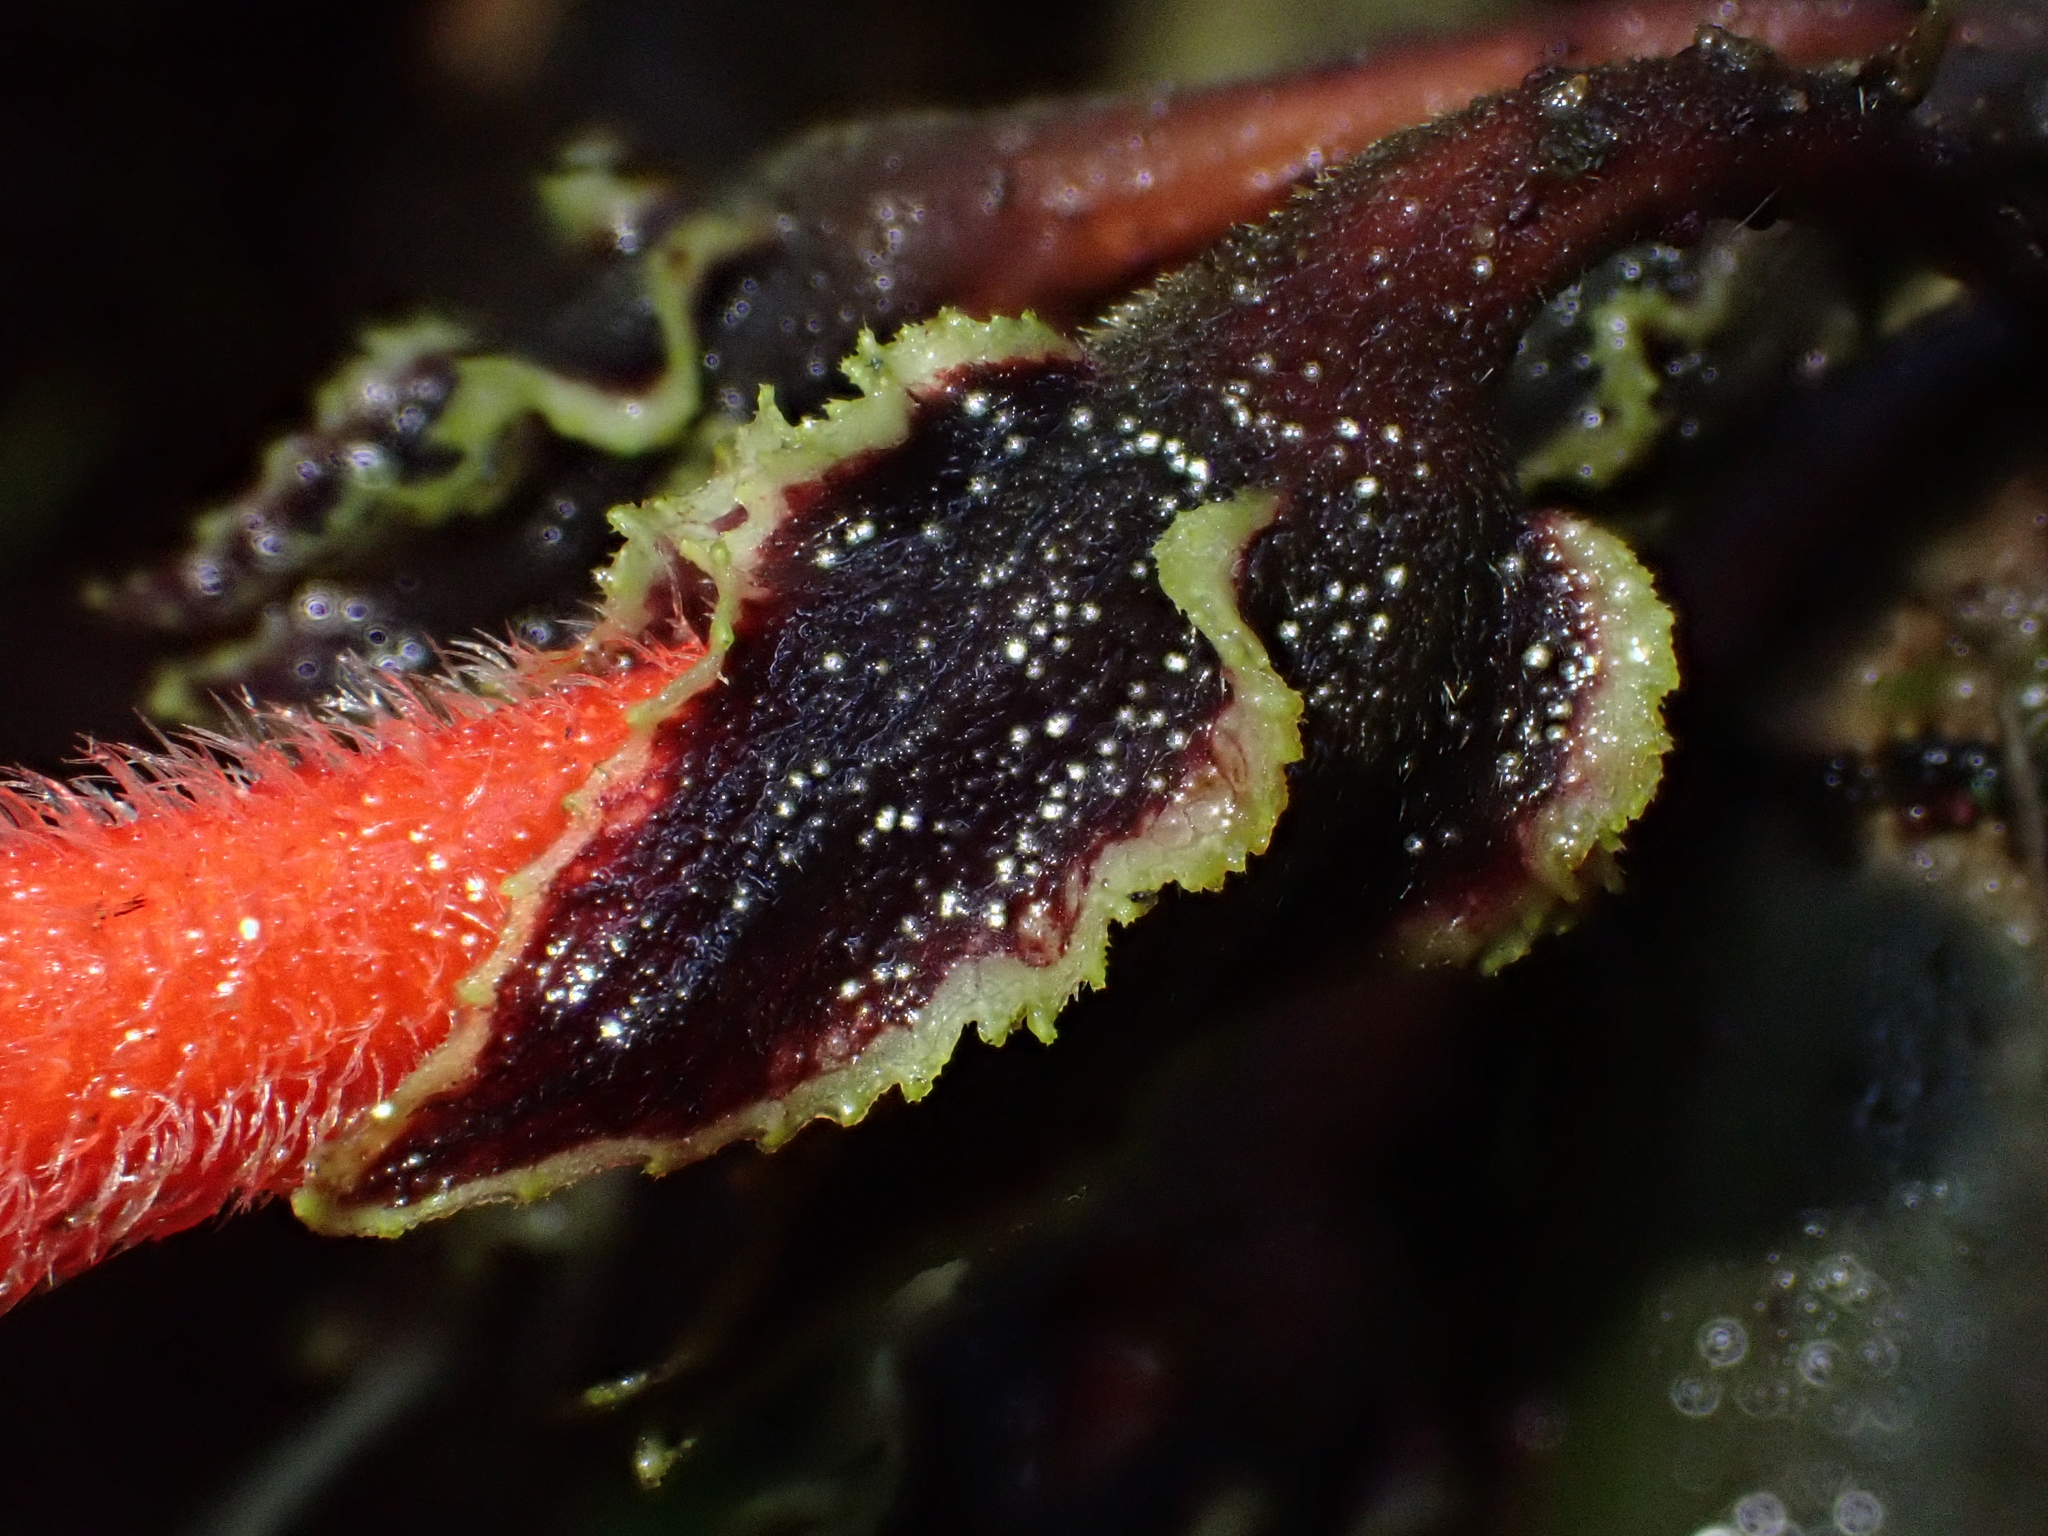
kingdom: Plantae
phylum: Tracheophyta
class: Magnoliopsida
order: Lamiales
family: Gesneriaceae
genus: Glossoloma
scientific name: Glossoloma subglabrum
